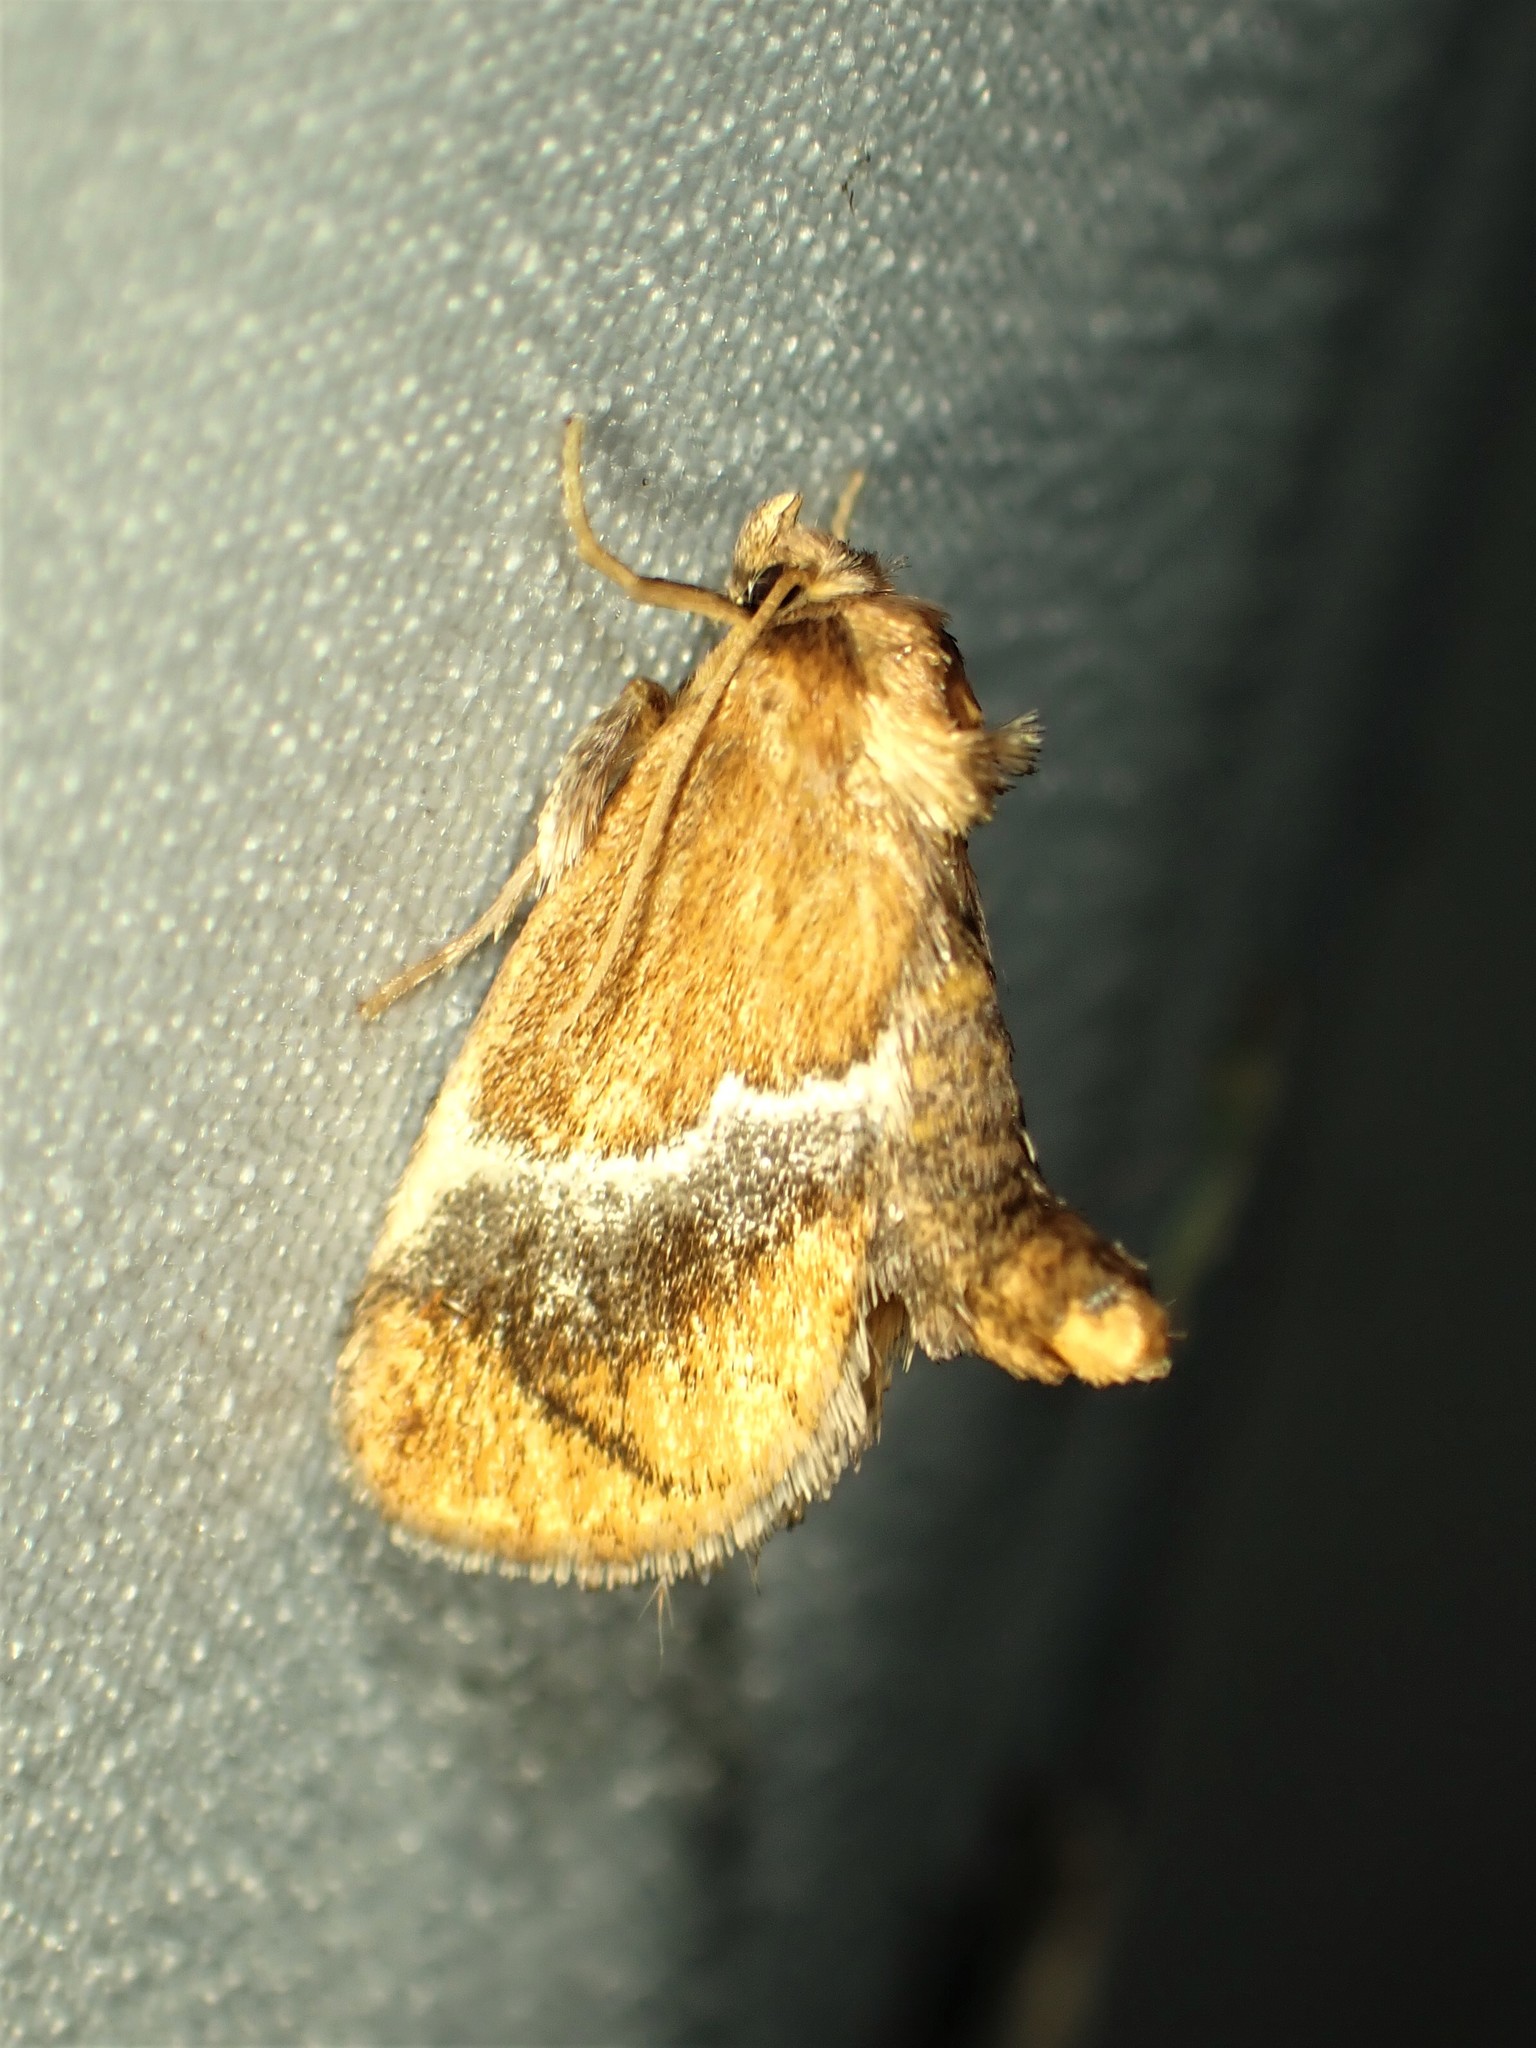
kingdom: Animalia
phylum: Arthropoda
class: Insecta
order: Lepidoptera
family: Limacodidae
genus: Lithacodes
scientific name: Lithacodes fasciola
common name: Yellow-shouldered slug moth
